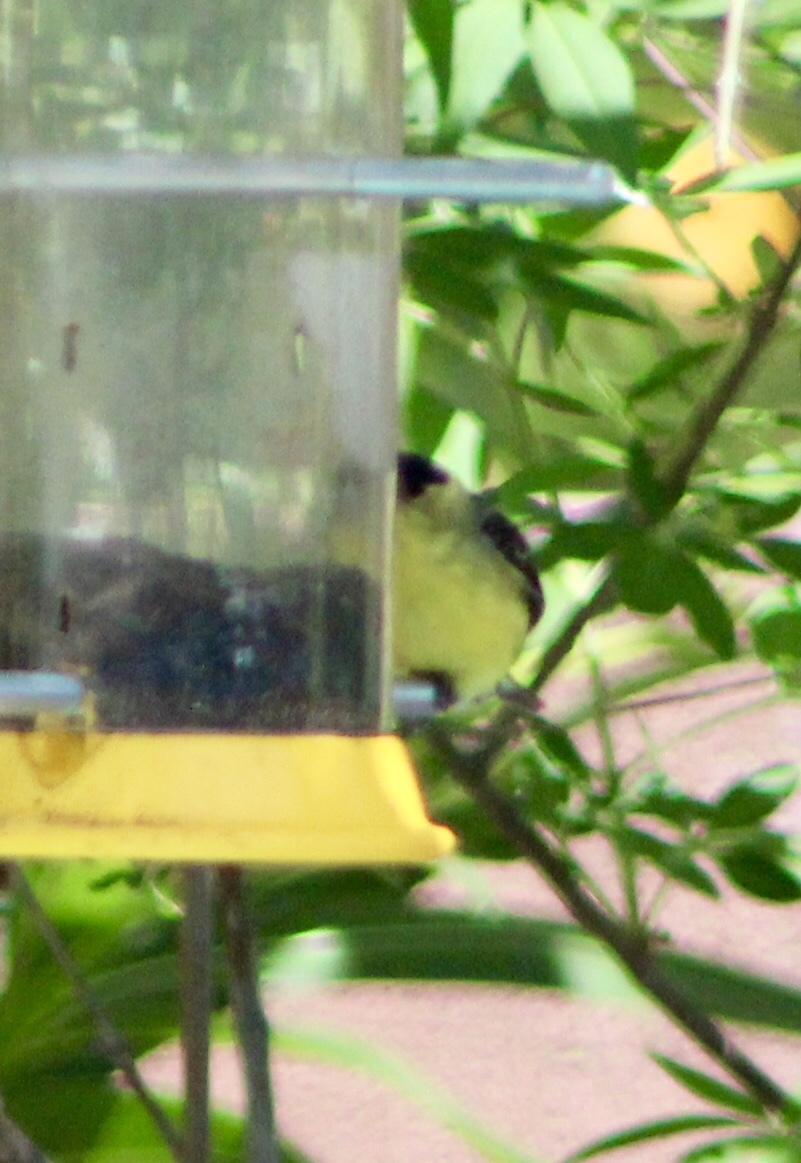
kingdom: Animalia
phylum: Chordata
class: Aves
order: Passeriformes
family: Fringillidae
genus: Spinus
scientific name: Spinus psaltria
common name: Lesser goldfinch
